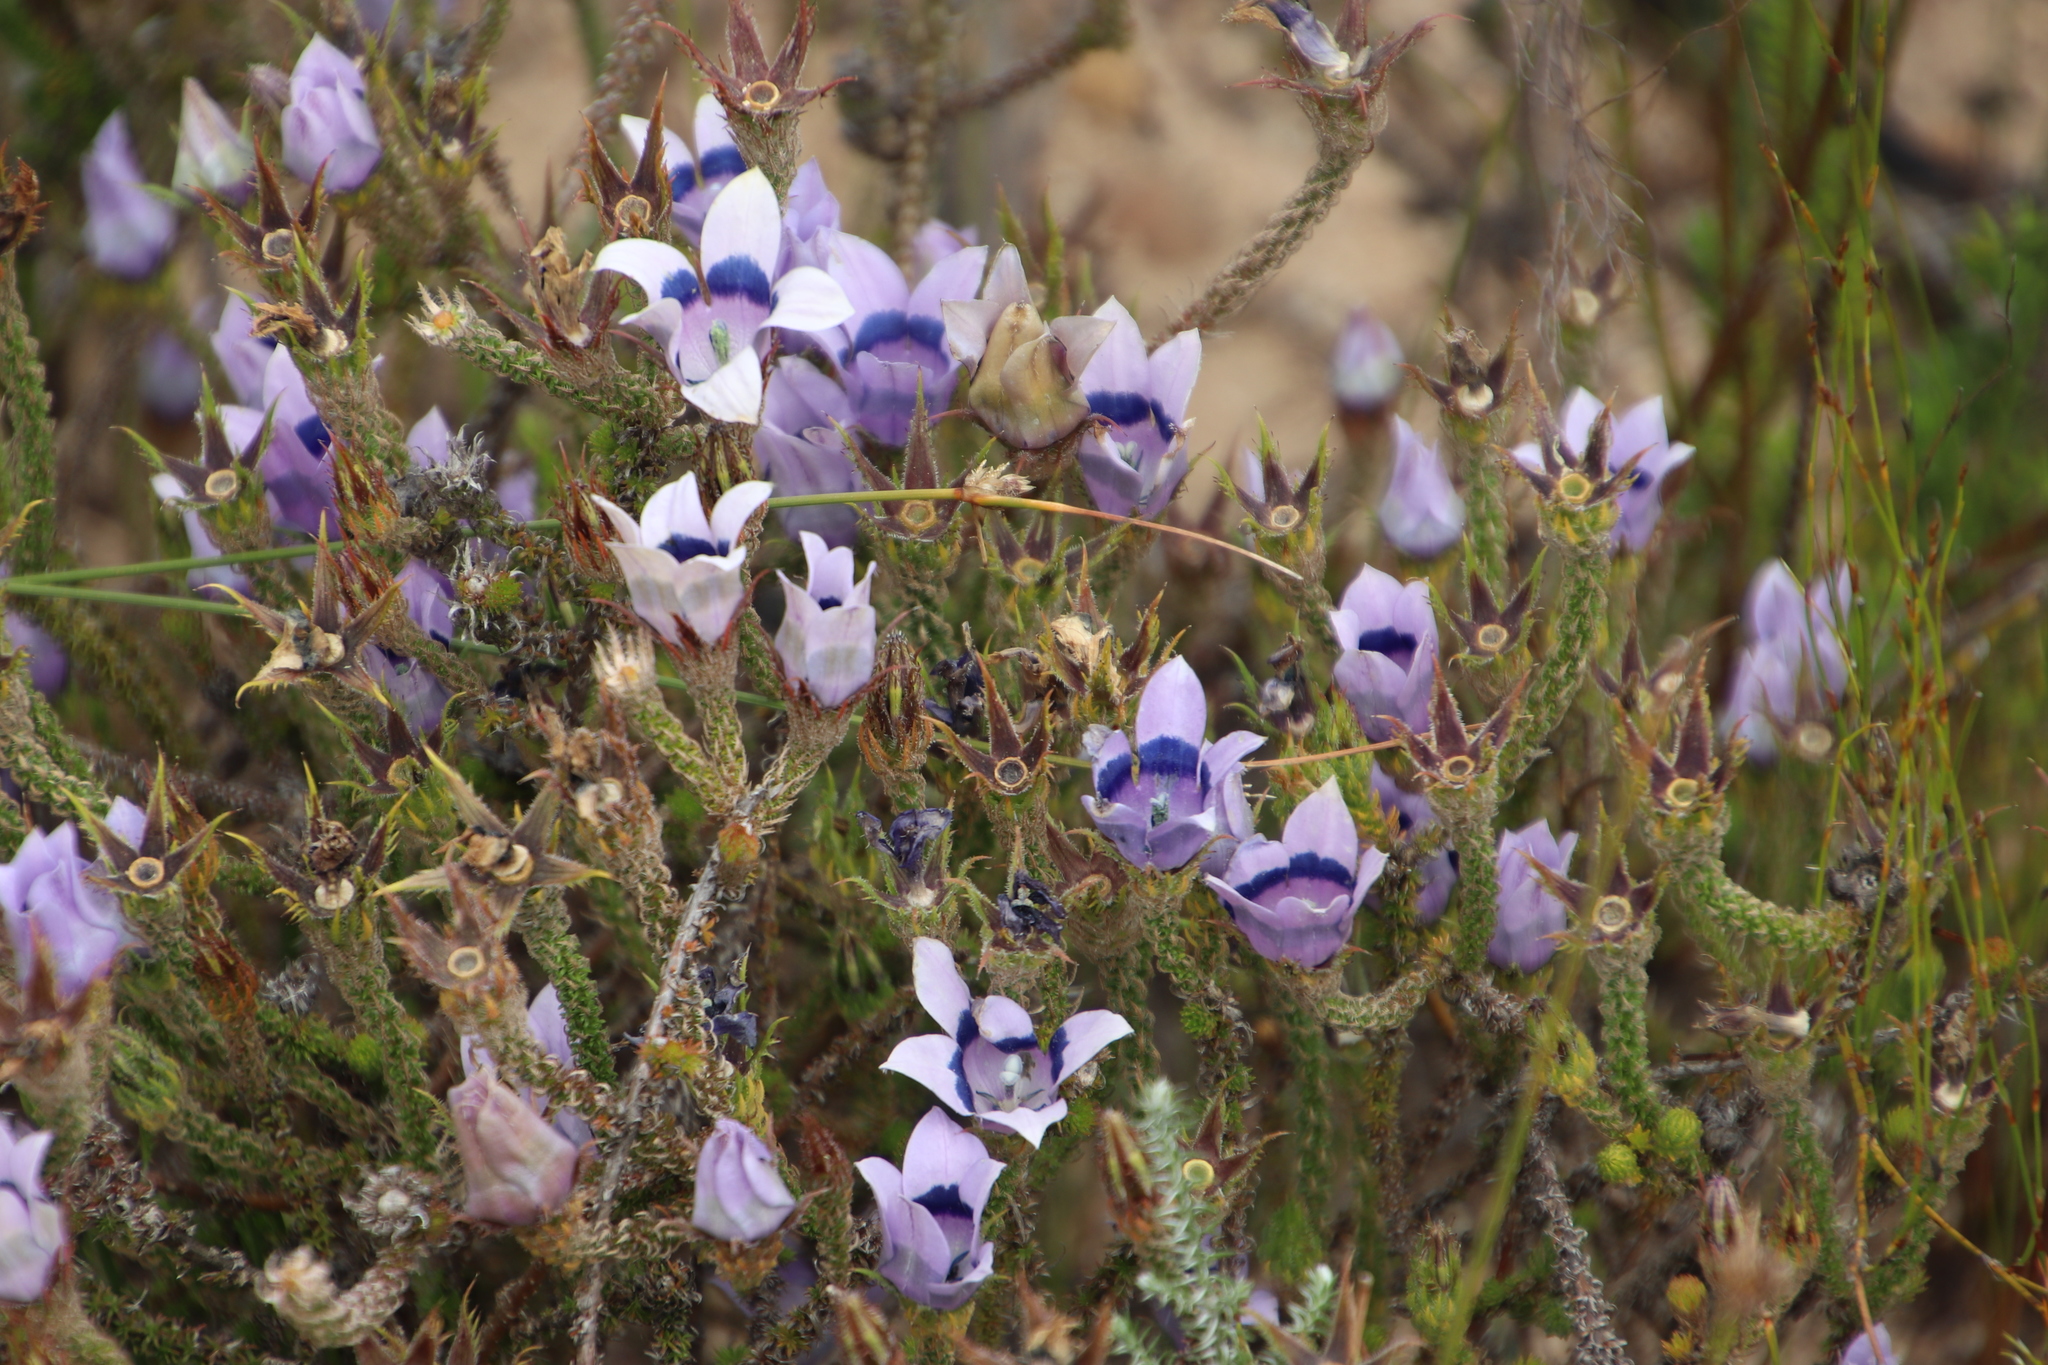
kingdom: Plantae
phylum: Tracheophyta
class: Magnoliopsida
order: Asterales
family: Campanulaceae
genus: Roella
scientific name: Roella ciliata
